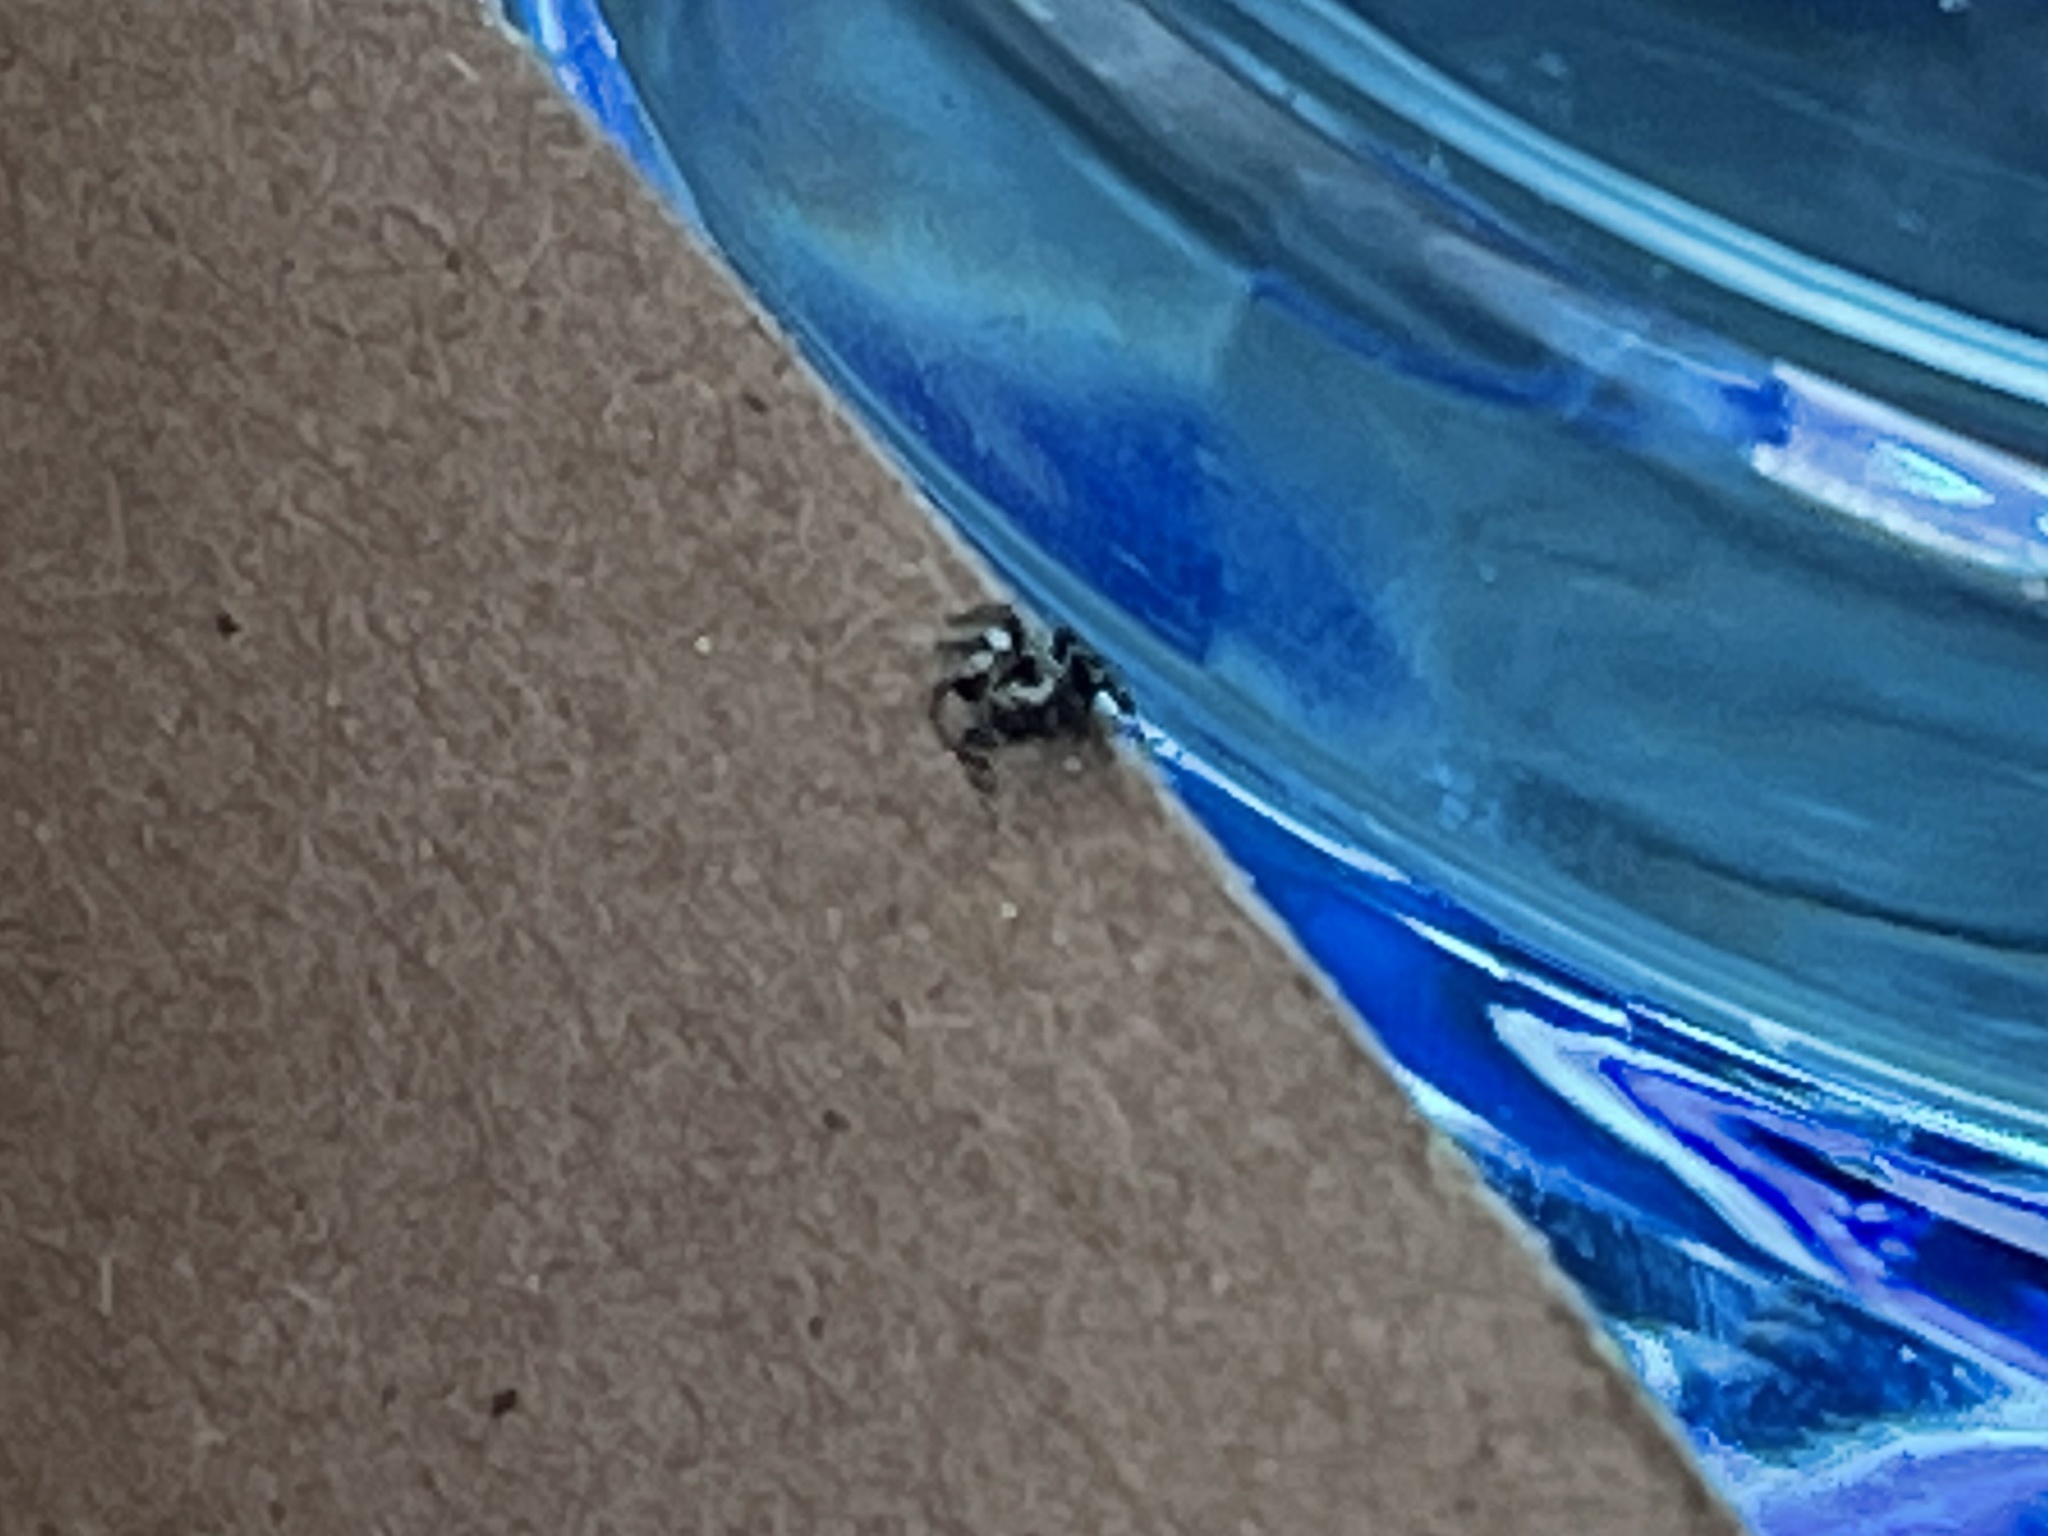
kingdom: Animalia
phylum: Arthropoda
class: Arachnida
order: Araneae
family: Salticidae
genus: Dendryphantes
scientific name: Dendryphantes nigromaculatus
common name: Black-marked jumping spider
